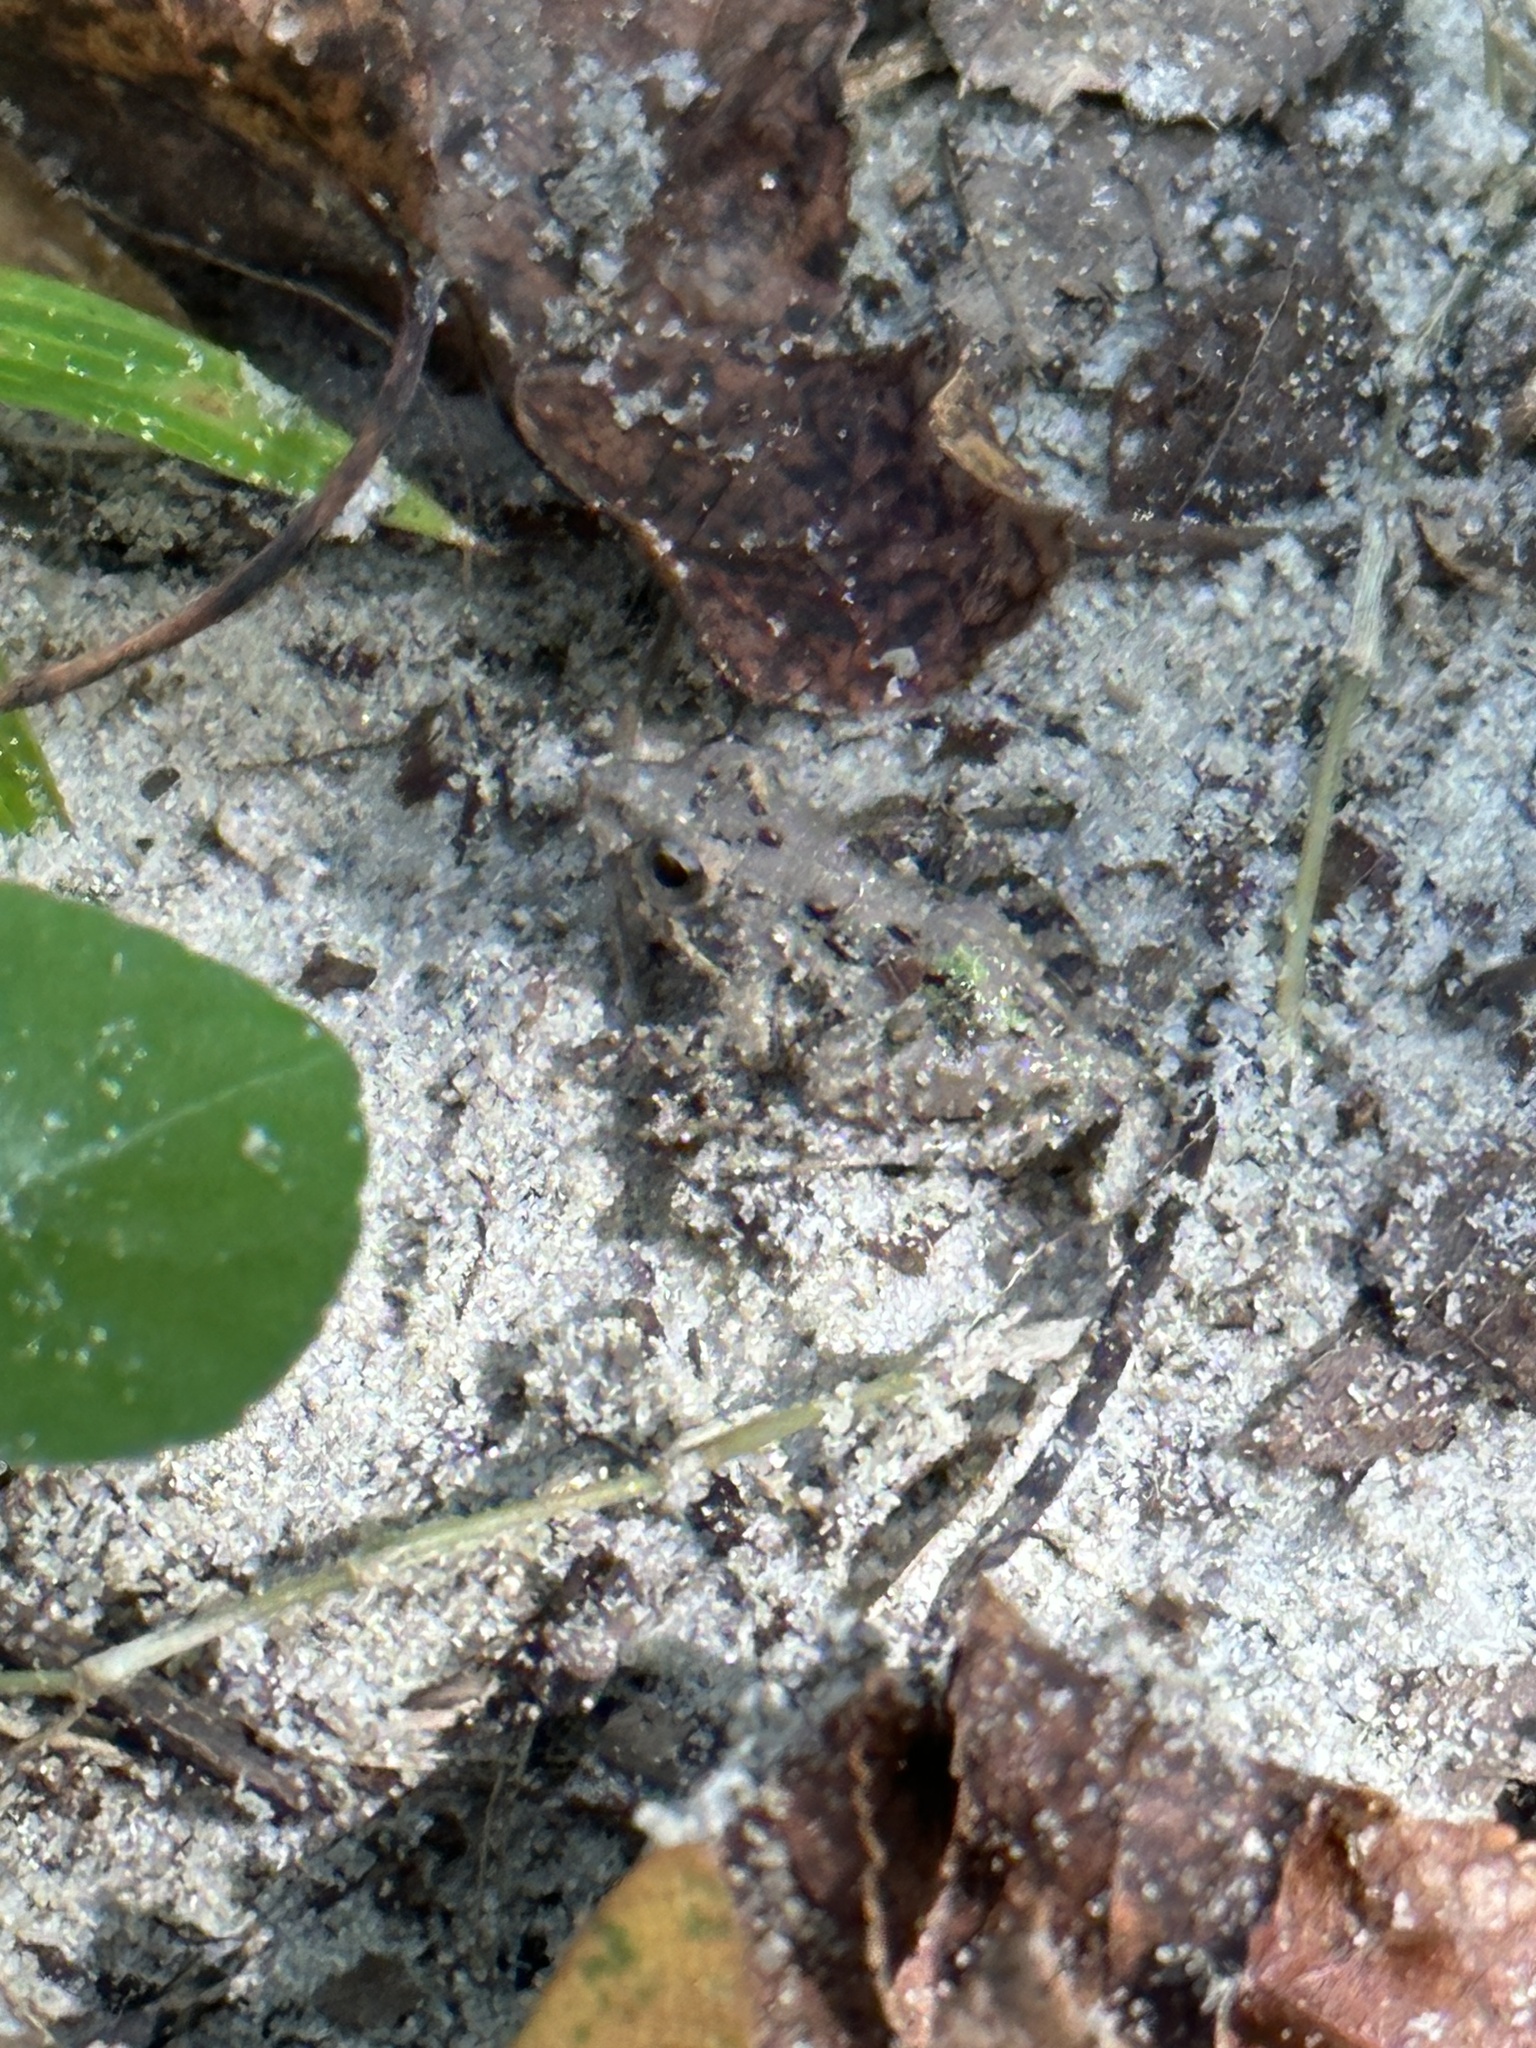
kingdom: Animalia
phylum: Chordata
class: Amphibia
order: Anura
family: Hylidae
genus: Acris
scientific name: Acris gryllus
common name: Southern cricket frog
